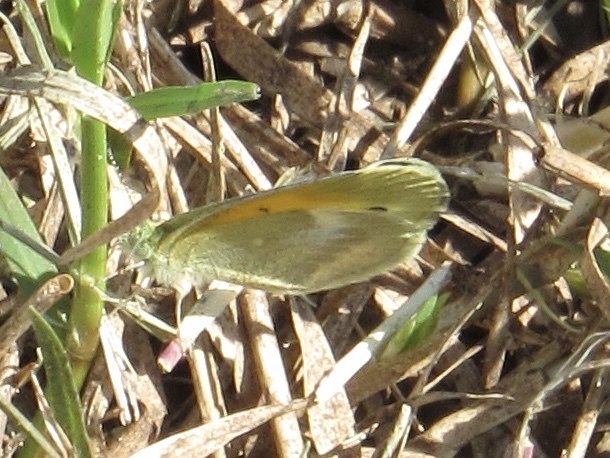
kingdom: Animalia
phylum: Arthropoda
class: Insecta
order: Lepidoptera
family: Pieridae
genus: Nathalis
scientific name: Nathalis iole
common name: Dainty sulphur
